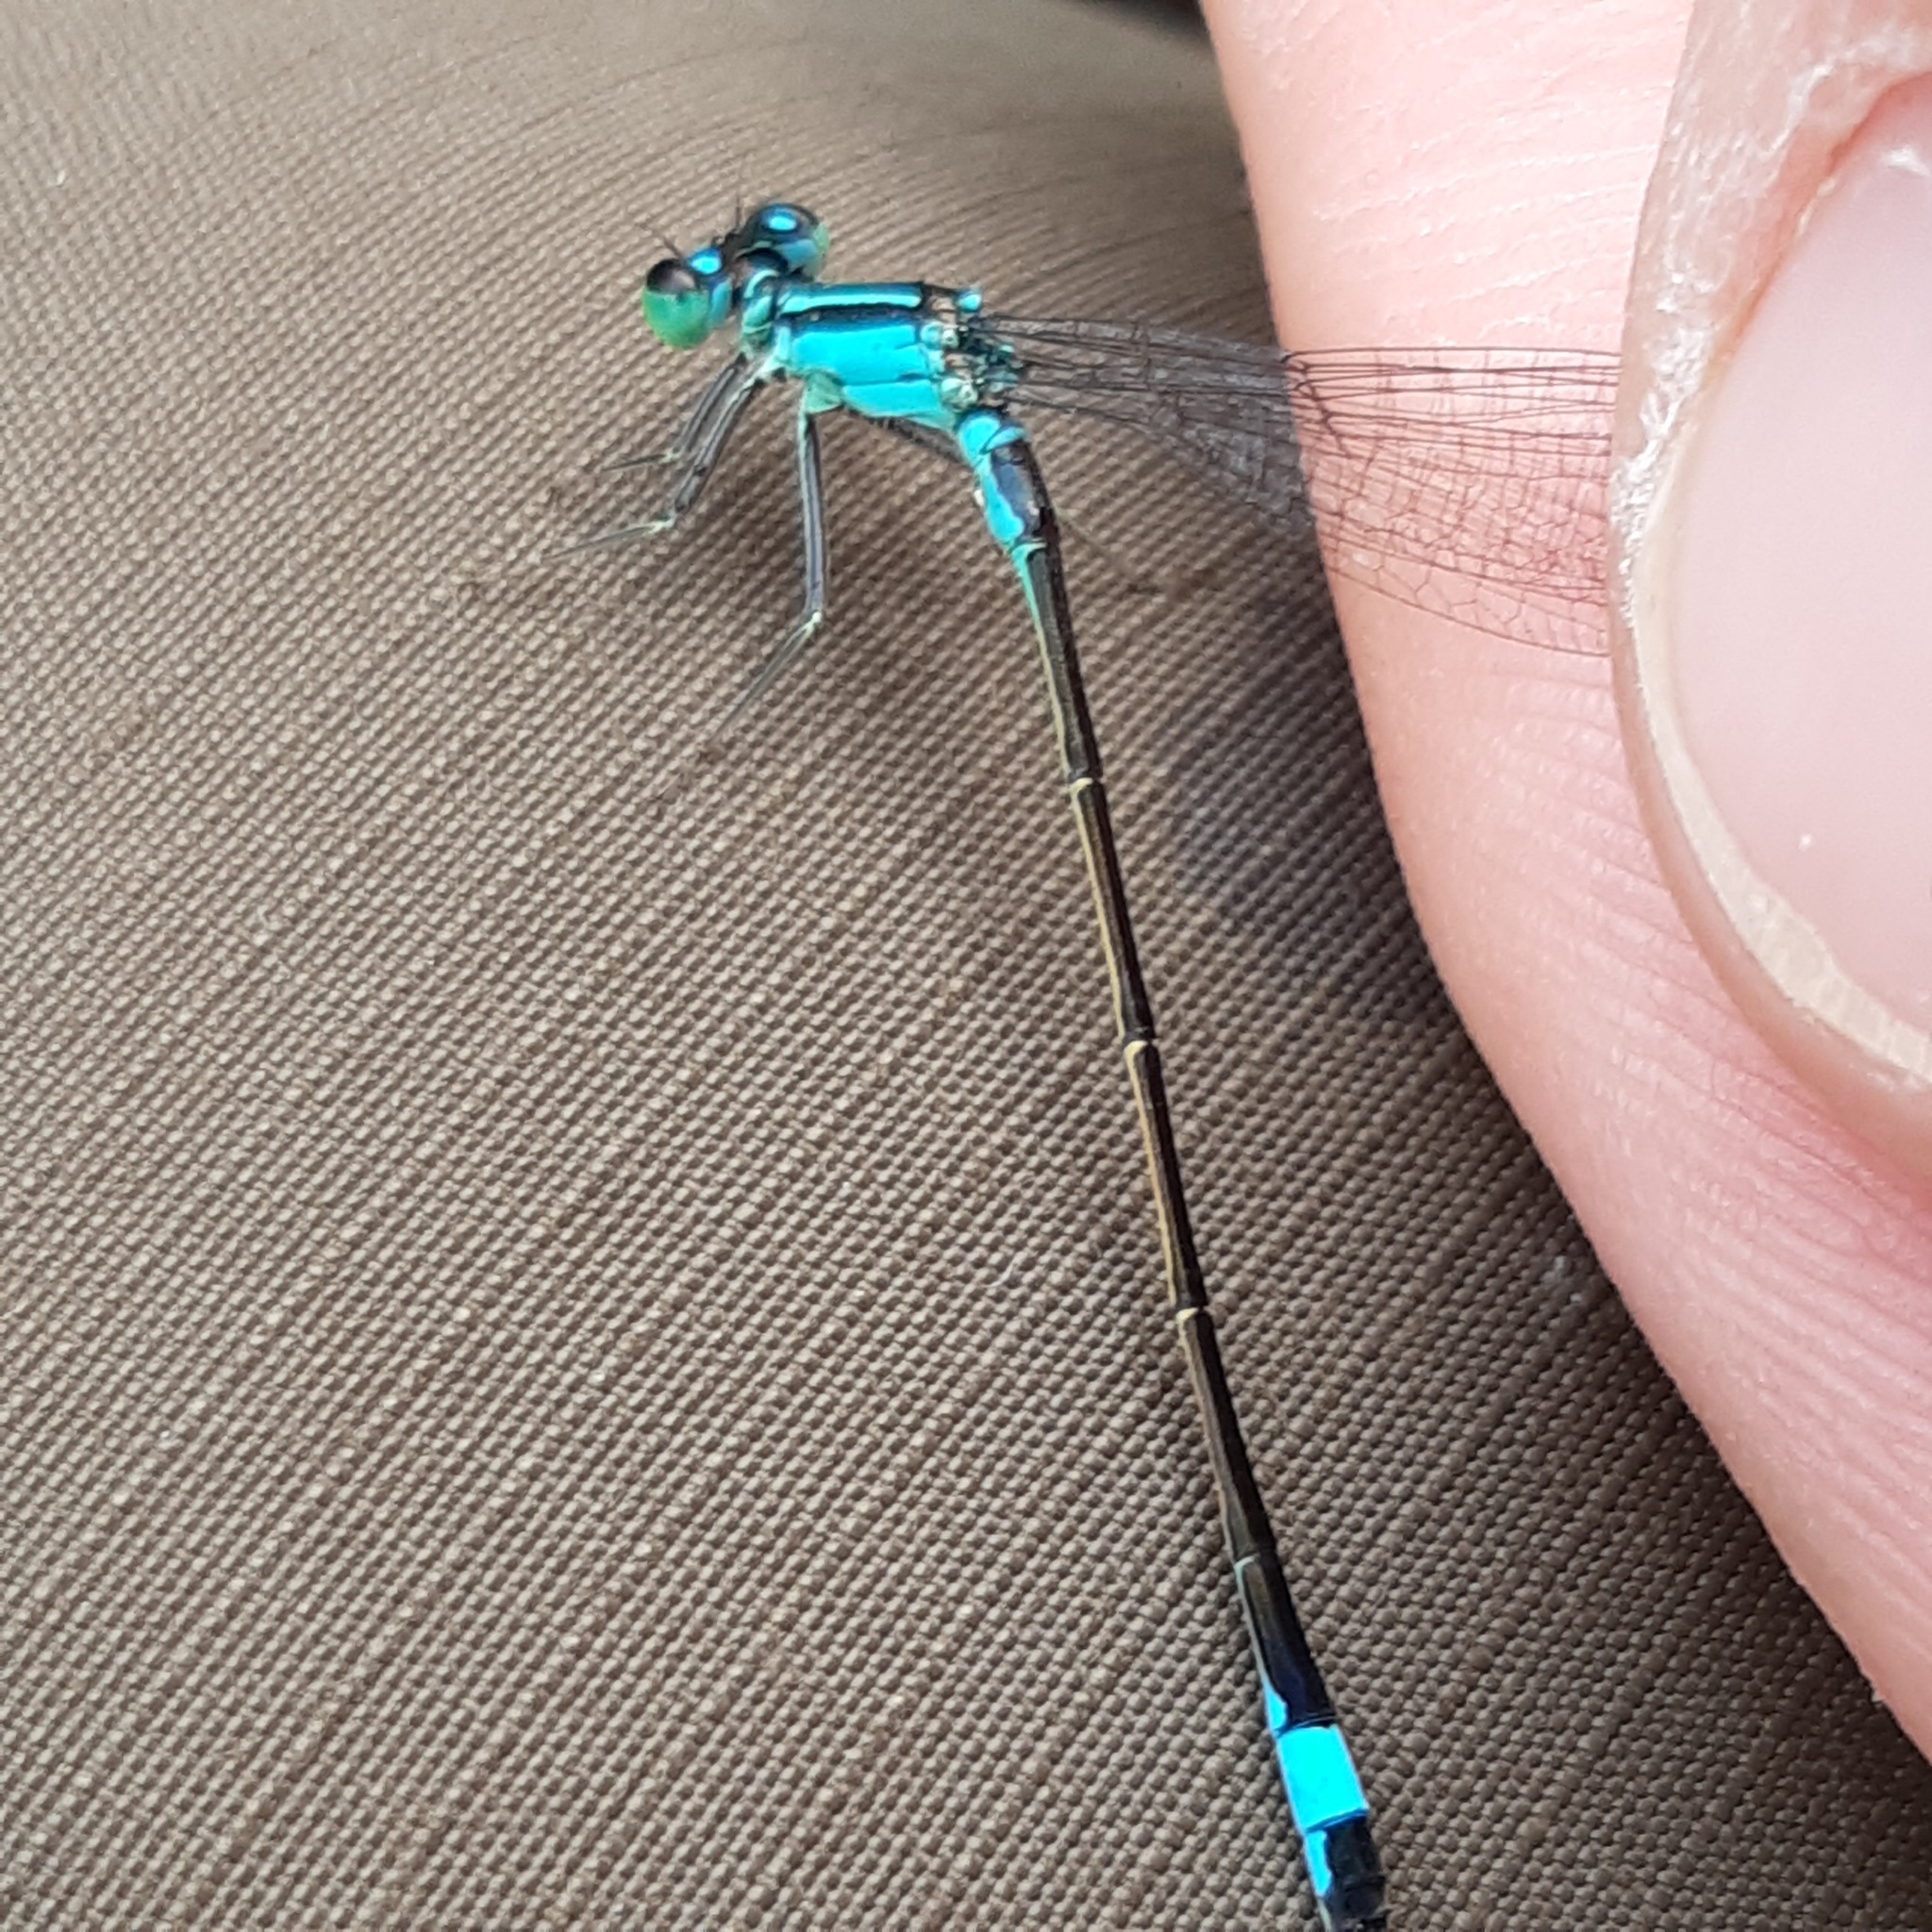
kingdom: Animalia
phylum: Arthropoda
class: Insecta
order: Odonata
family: Coenagrionidae
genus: Ischnura
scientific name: Ischnura elegans
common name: Blue-tailed damselfly
